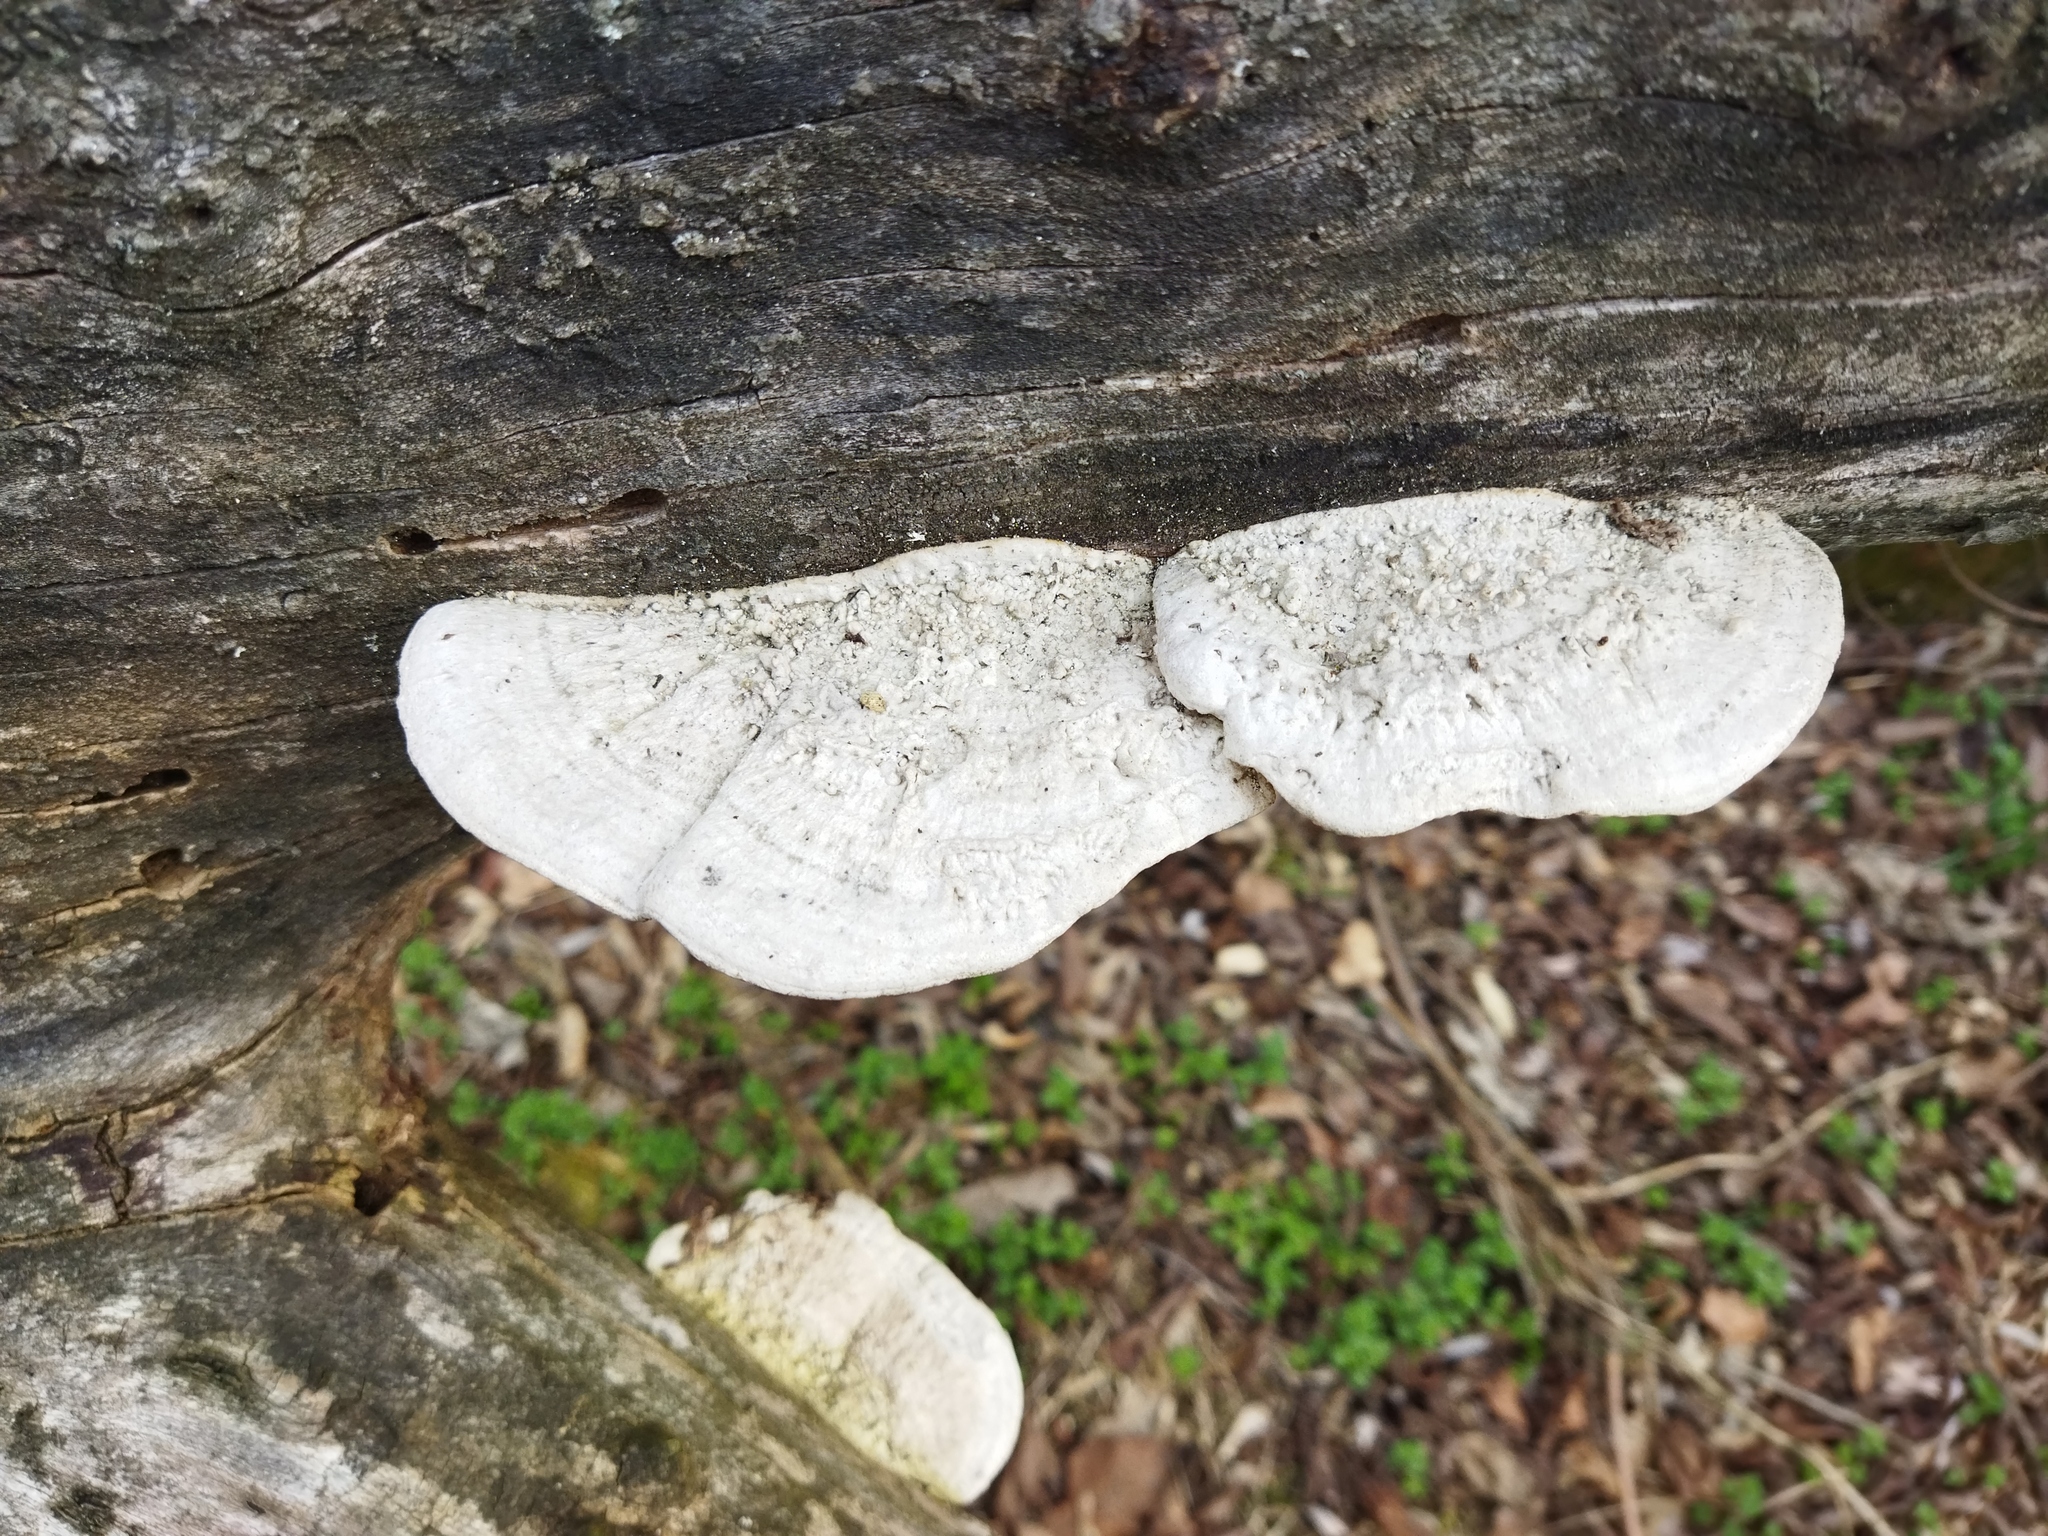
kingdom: Fungi
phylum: Basidiomycota
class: Agaricomycetes
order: Polyporales
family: Polyporaceae
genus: Daedaleopsis
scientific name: Daedaleopsis confragosa
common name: Blushing bracket
